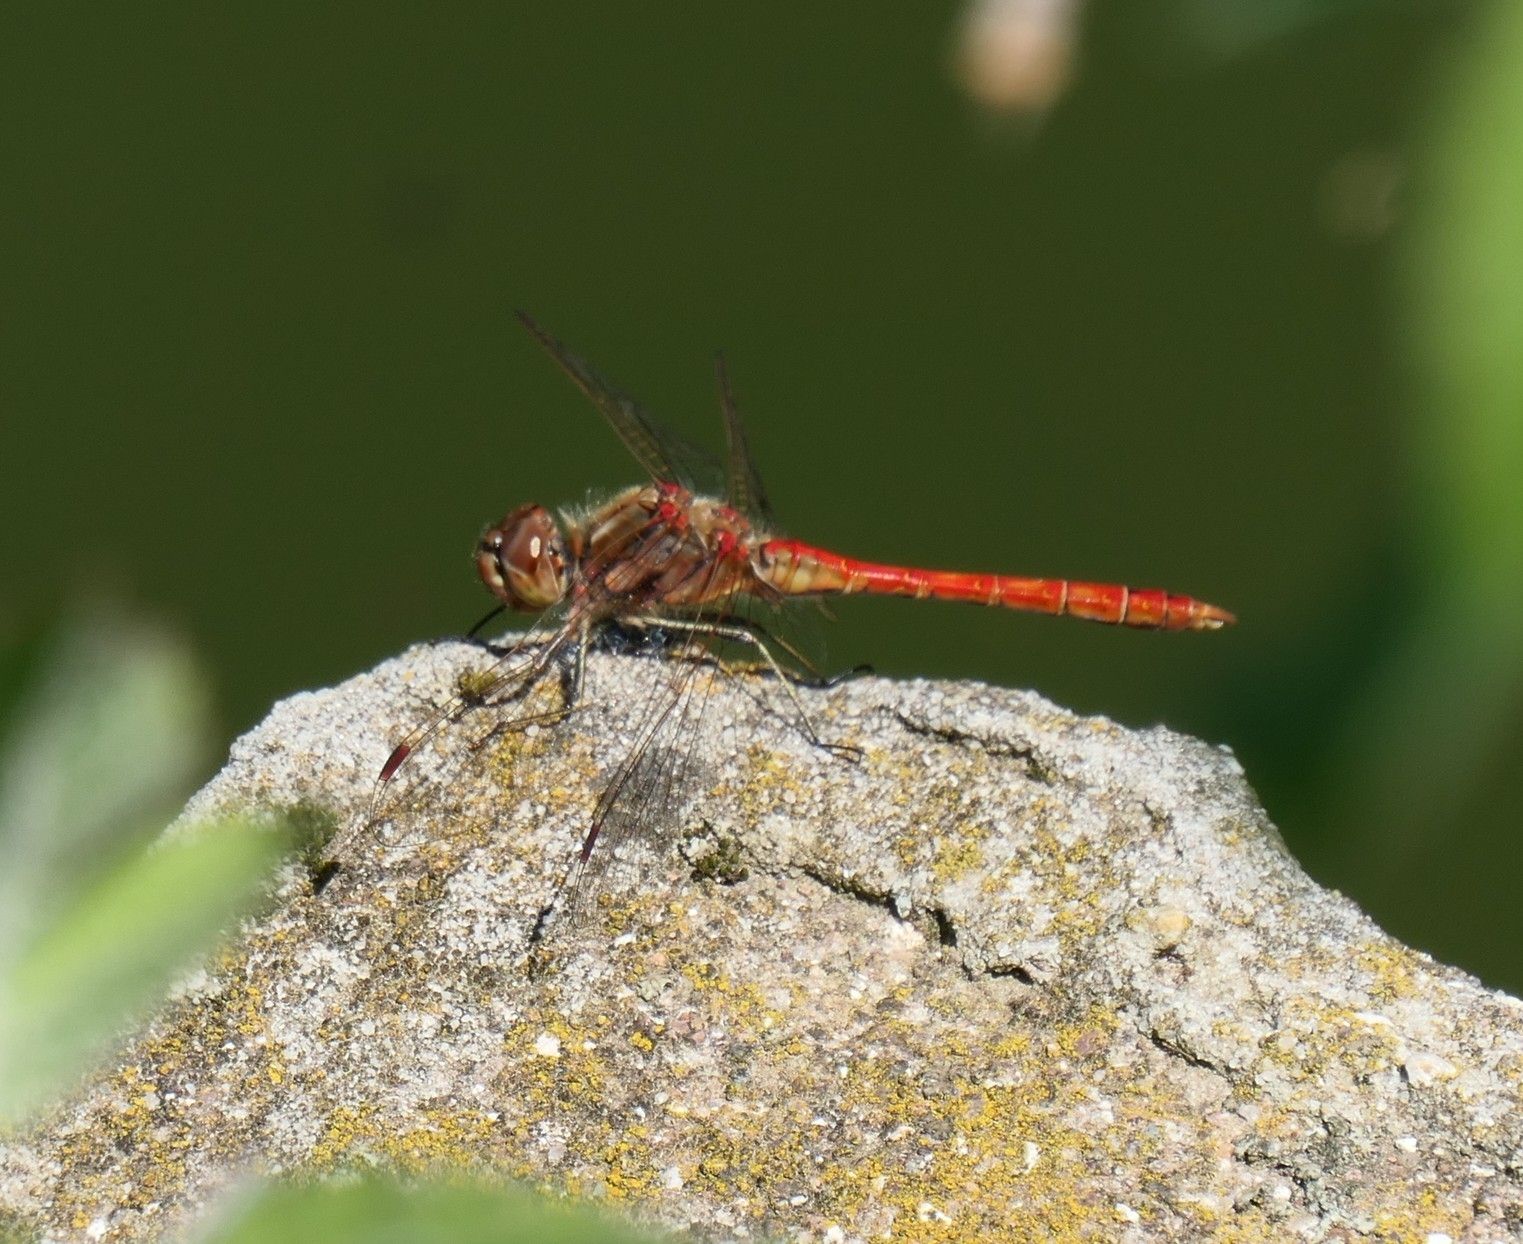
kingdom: Animalia
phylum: Arthropoda
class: Insecta
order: Odonata
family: Libellulidae
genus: Sympetrum
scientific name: Sympetrum vulgatum
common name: Vagrant darter
